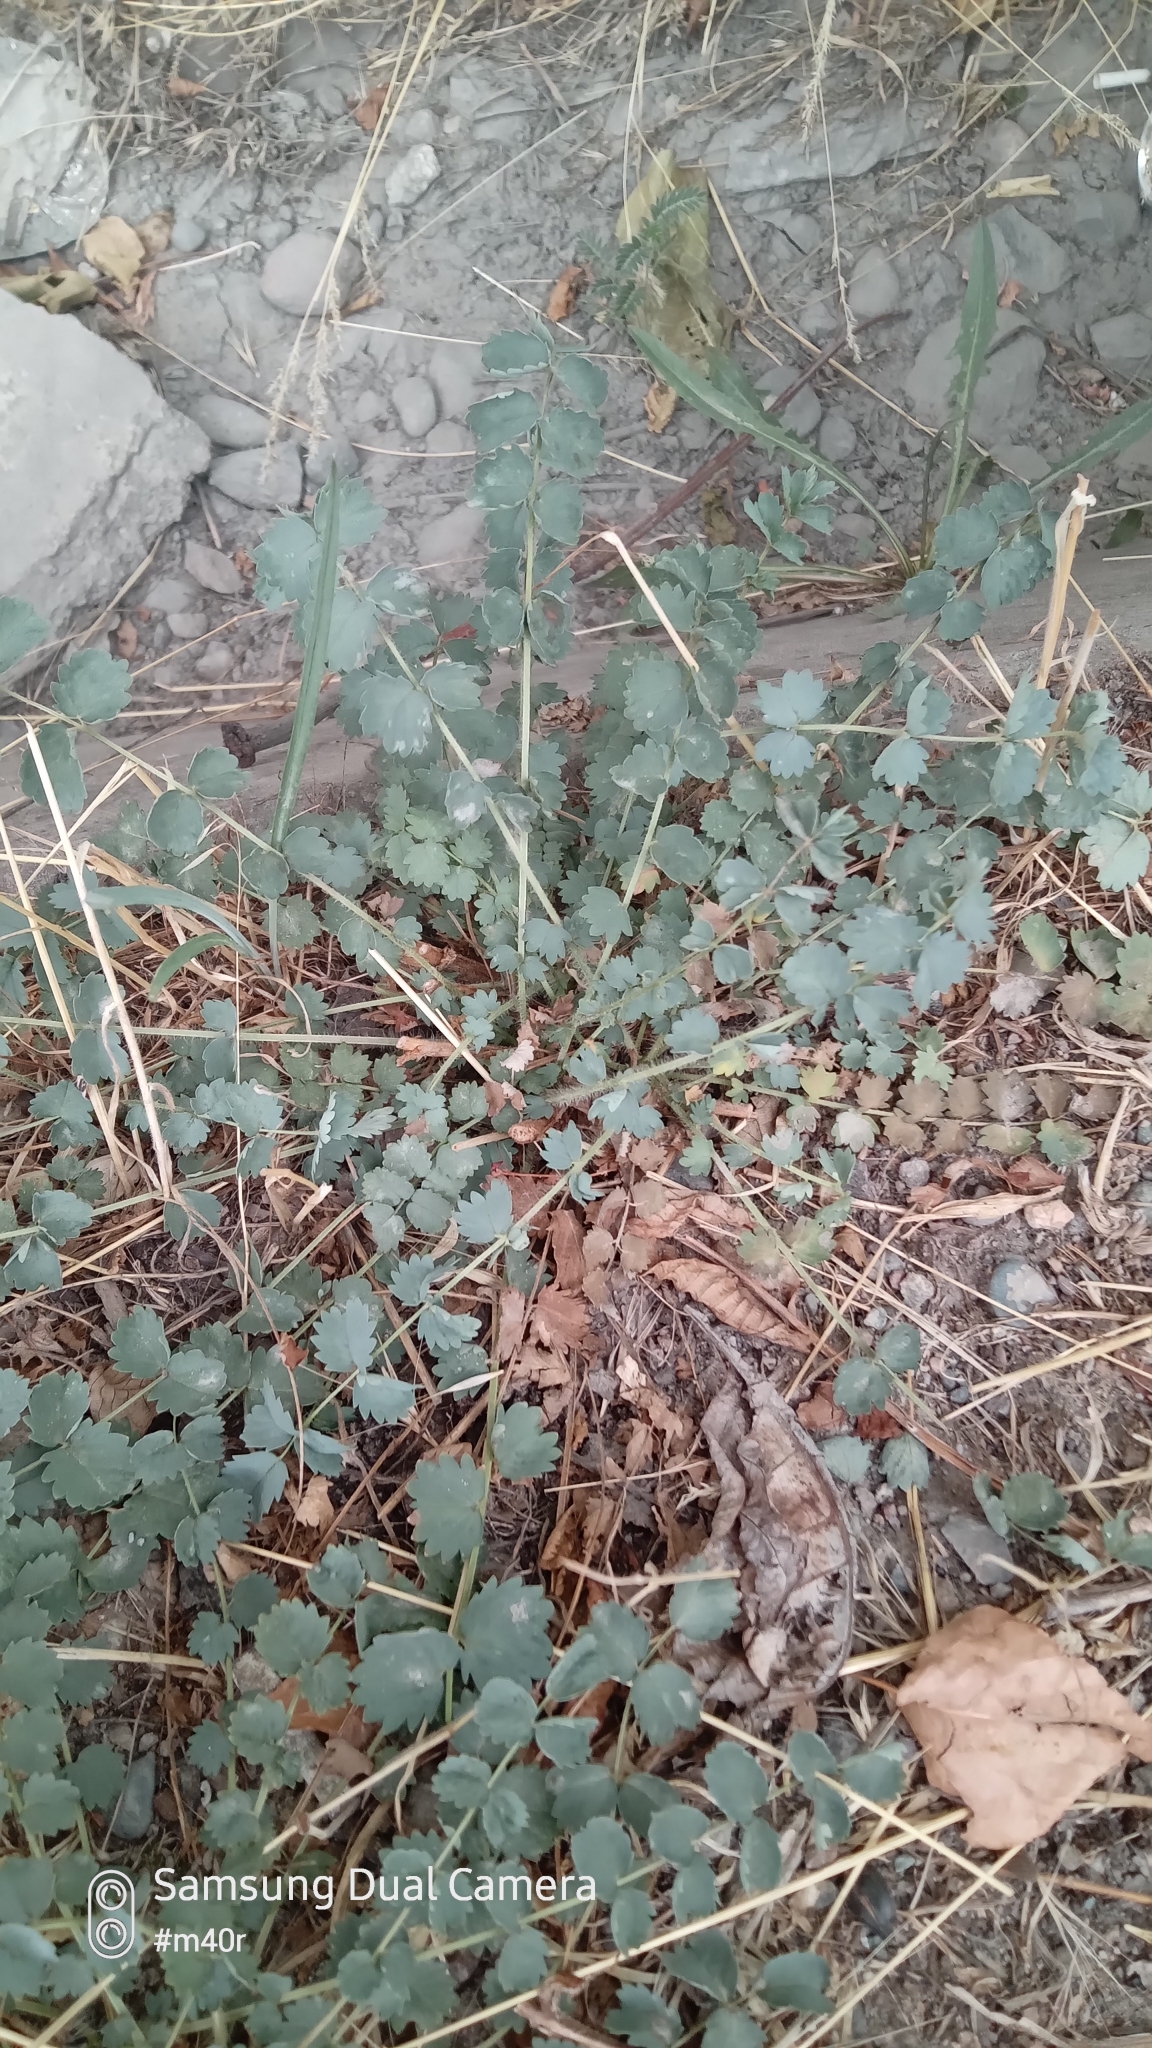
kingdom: Plantae
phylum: Tracheophyta
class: Magnoliopsida
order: Rosales
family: Rosaceae
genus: Poterium
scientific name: Poterium sanguisorba
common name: Salad burnet
